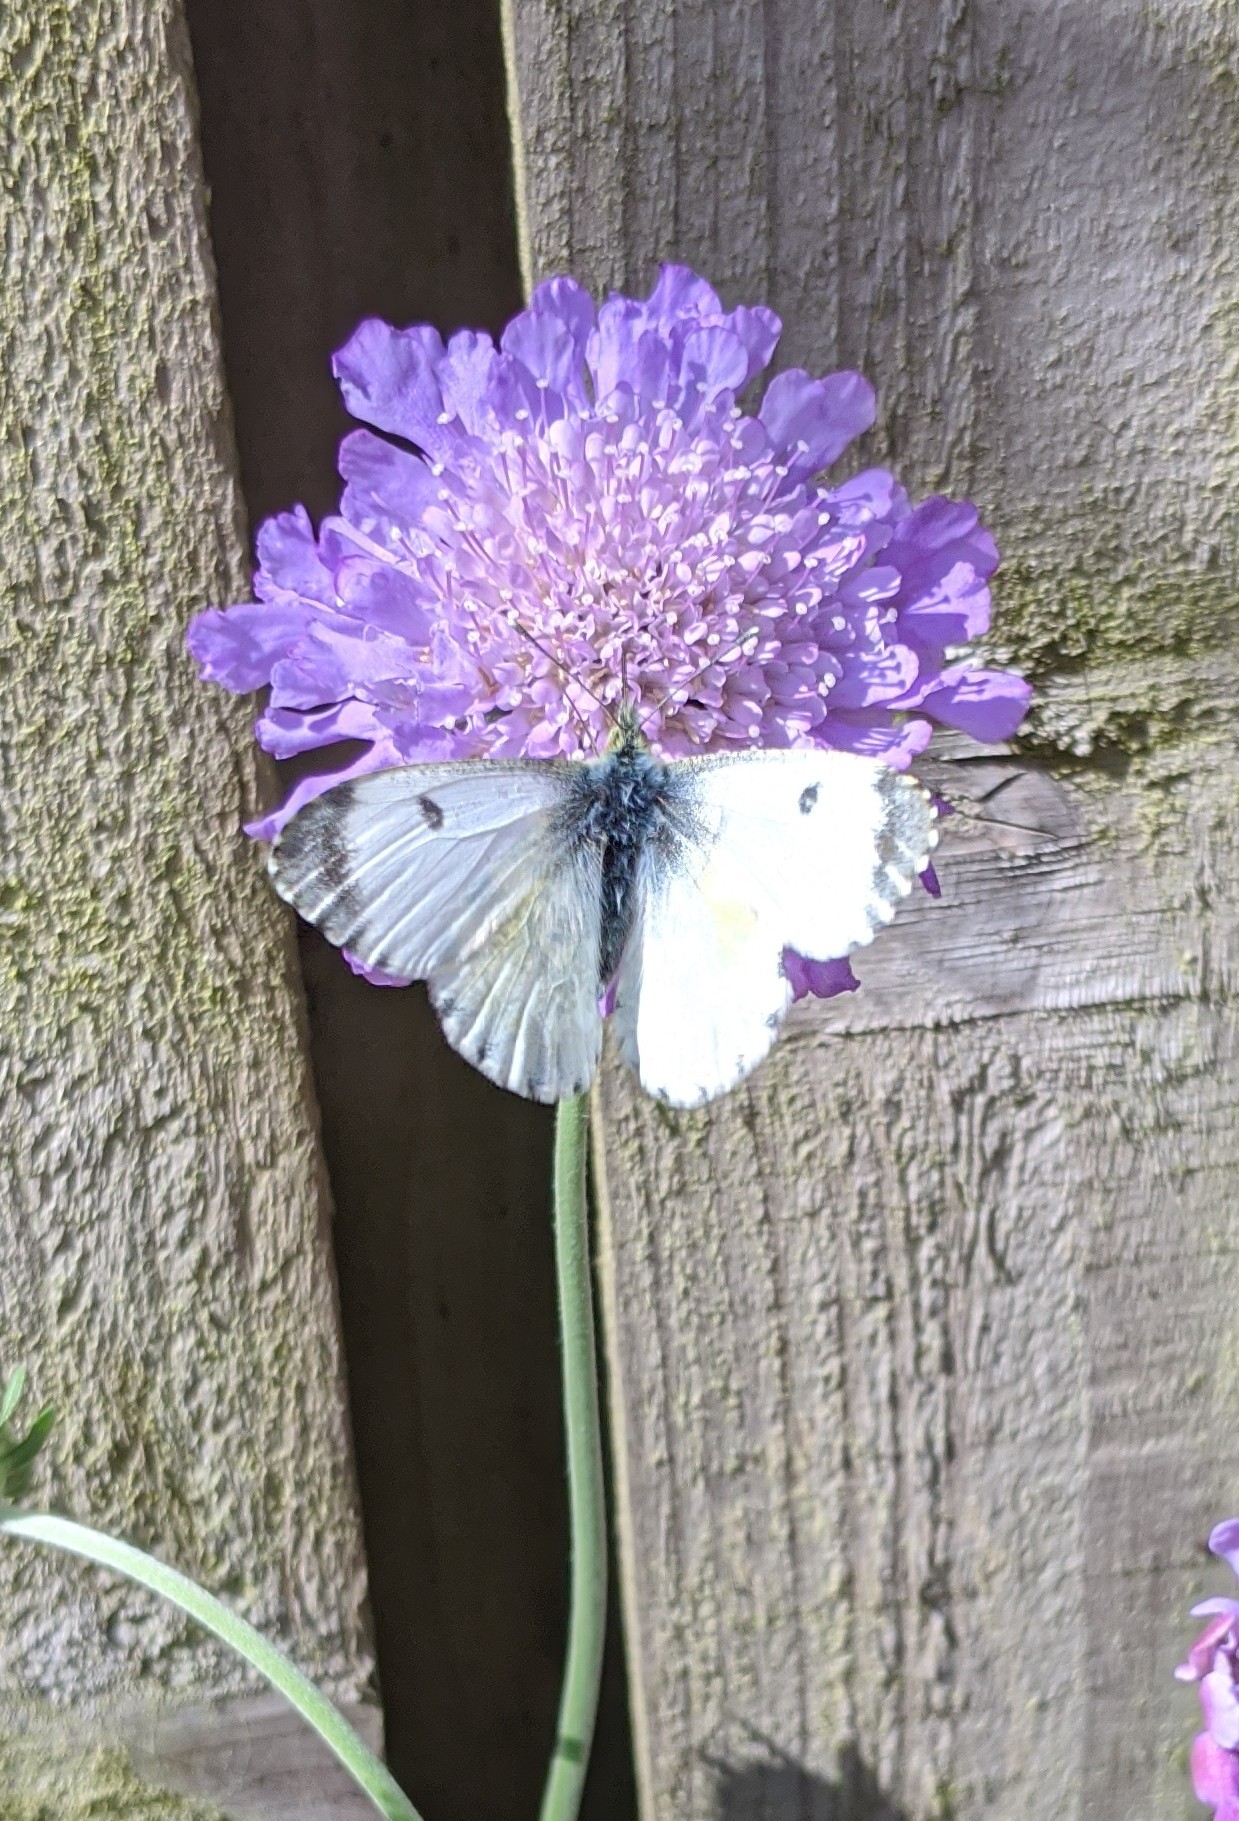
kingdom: Animalia
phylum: Arthropoda
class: Insecta
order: Lepidoptera
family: Pieridae
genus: Anthocharis
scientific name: Anthocharis cardamines
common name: Orange-tip
